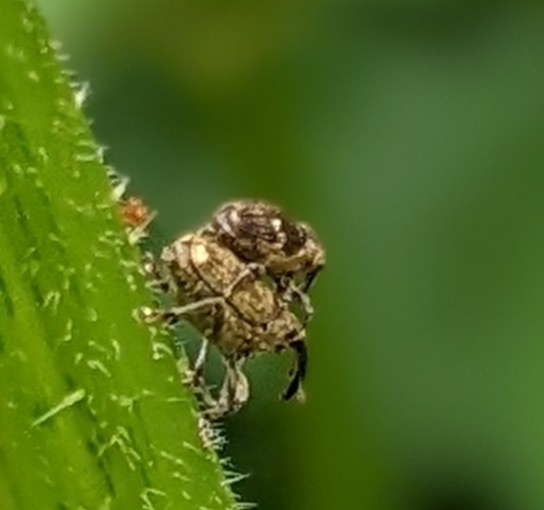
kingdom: Animalia
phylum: Arthropoda
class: Insecta
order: Coleoptera
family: Curculionidae
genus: Nedyus
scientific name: Nedyus quadrimaculatus
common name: Small nettle weevil
